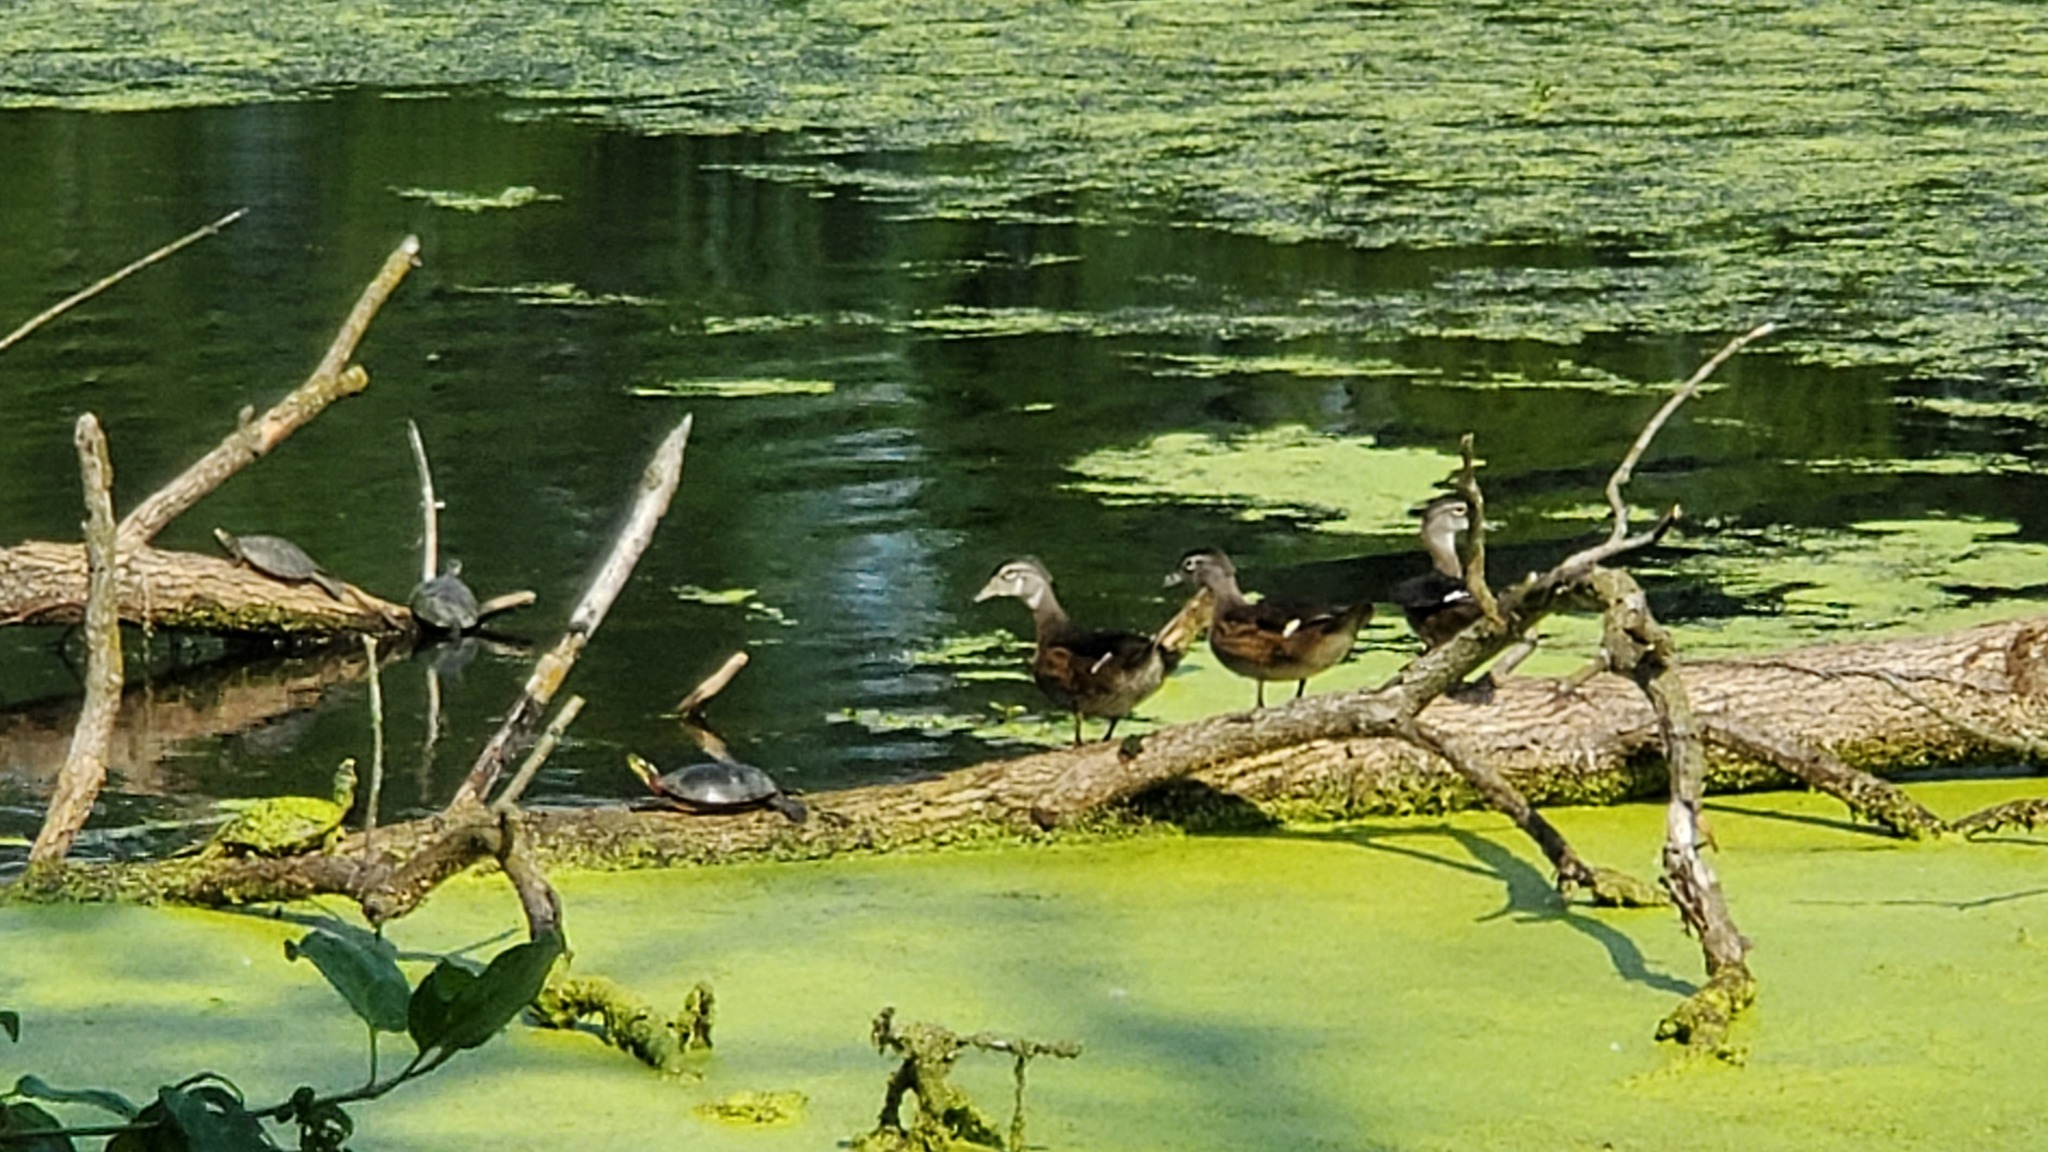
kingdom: Animalia
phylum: Chordata
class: Aves
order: Anseriformes
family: Anatidae
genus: Aix
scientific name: Aix sponsa
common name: Wood duck
